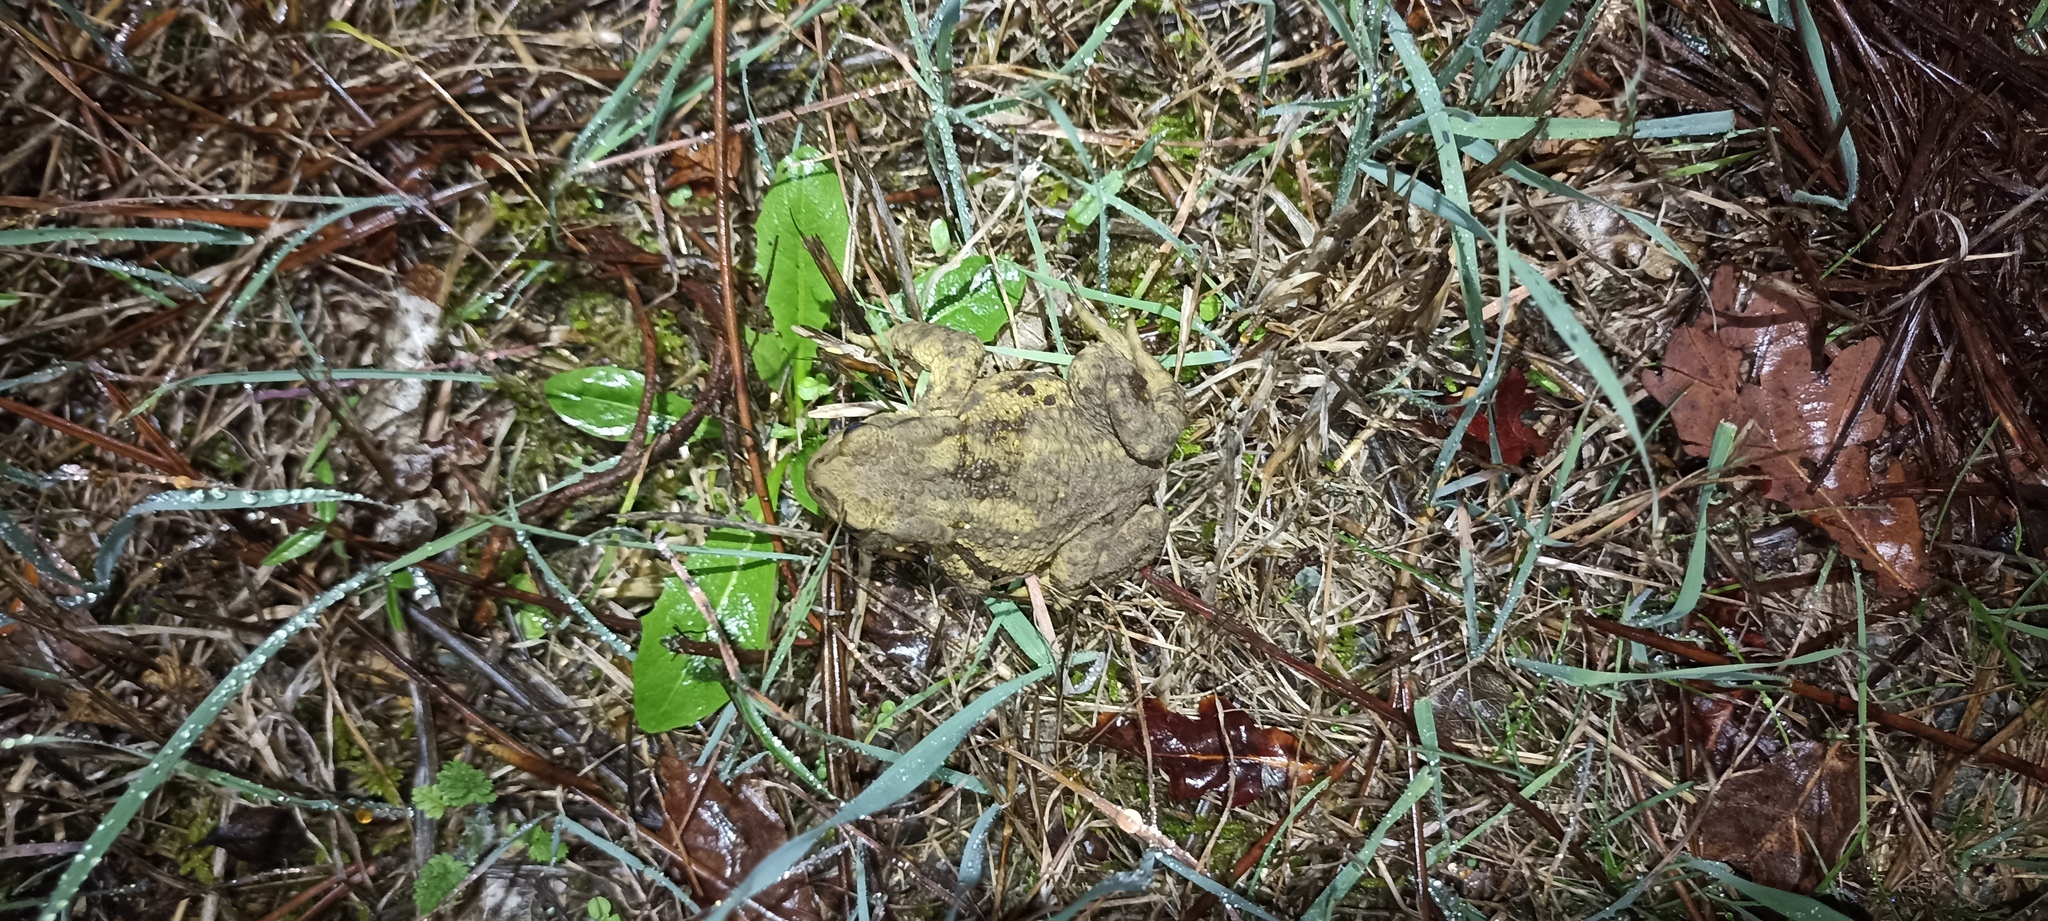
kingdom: Animalia
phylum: Chordata
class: Amphibia
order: Anura
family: Bufonidae
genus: Bufo
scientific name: Bufo spinosus
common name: Western common toad
